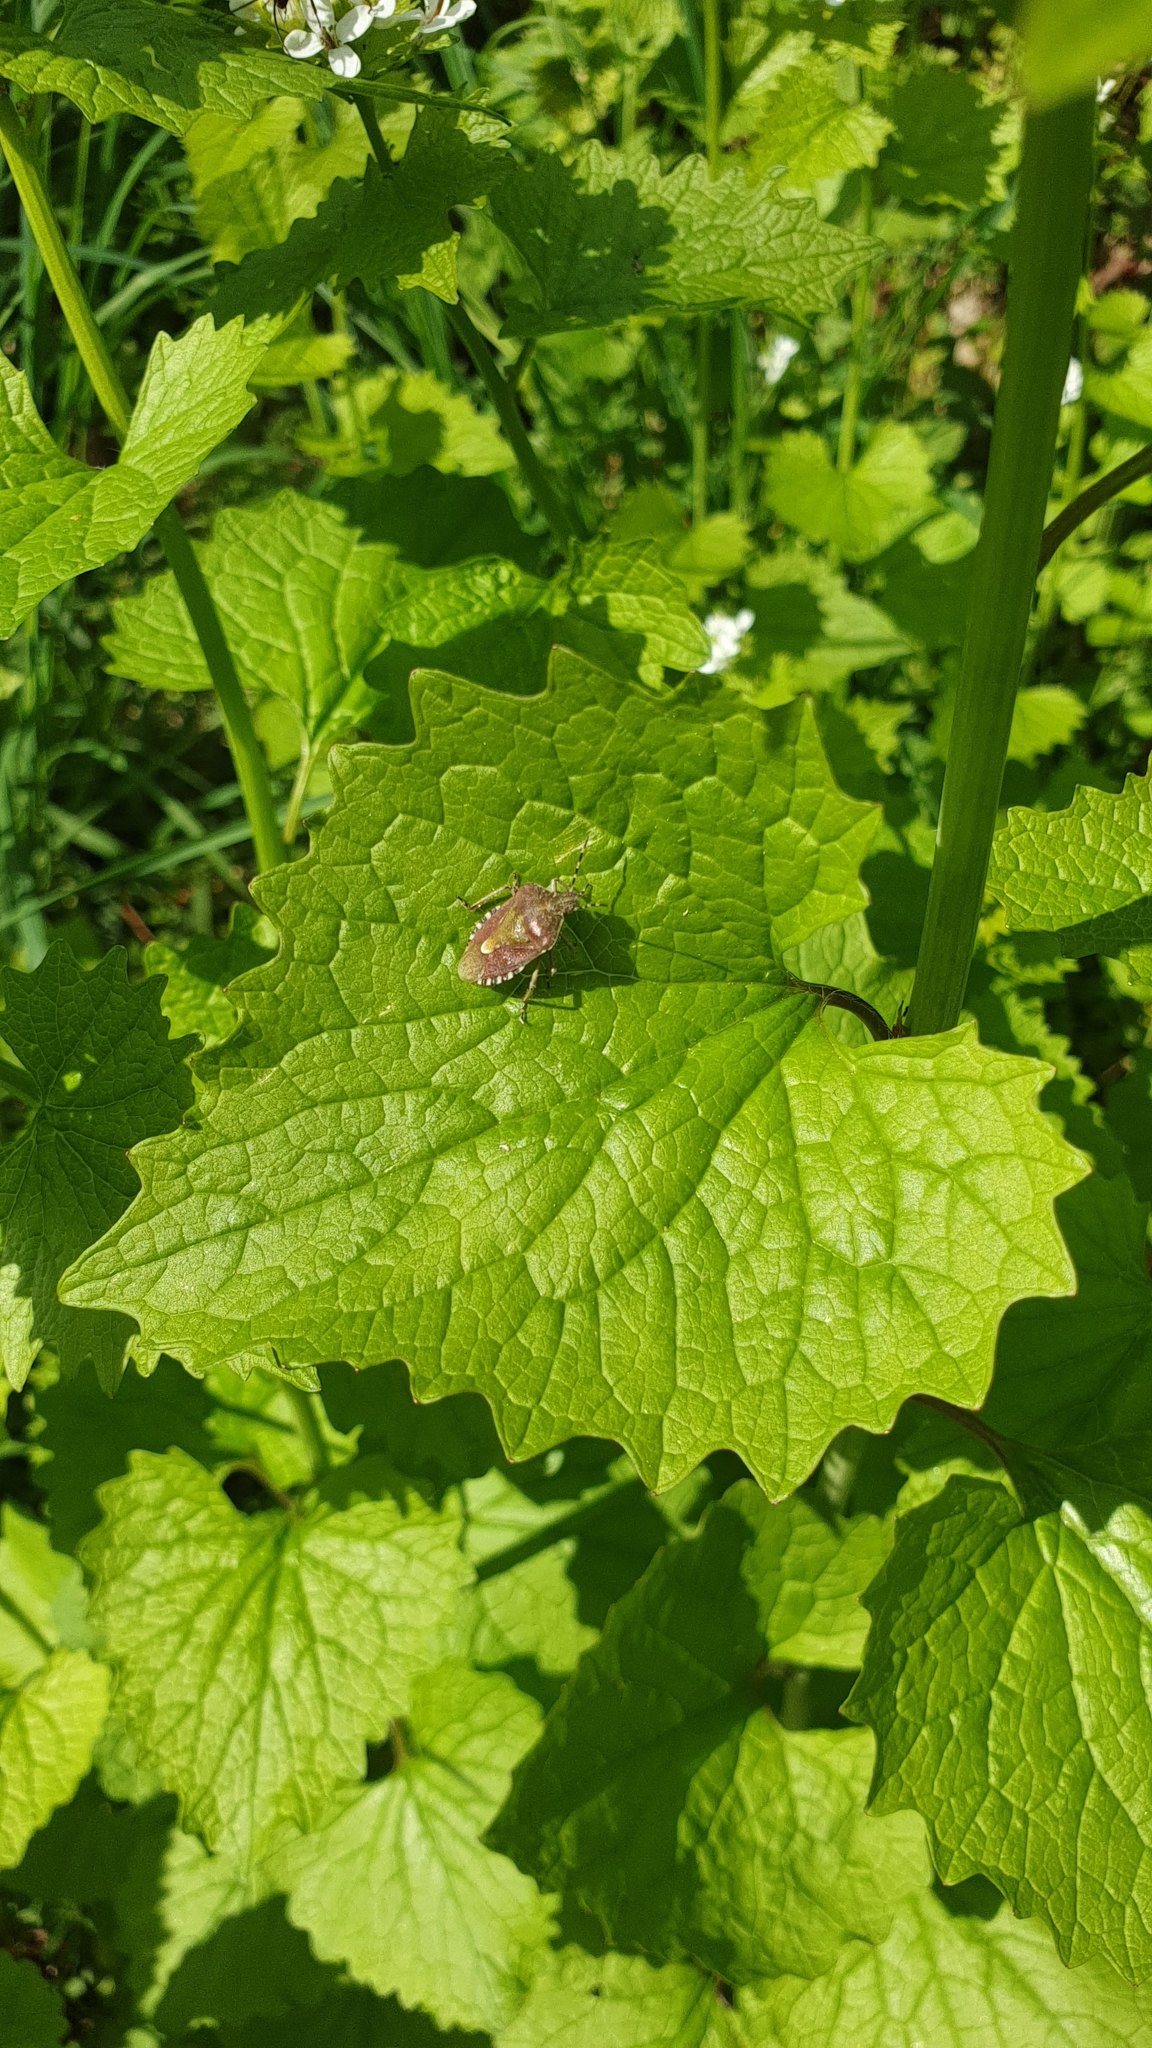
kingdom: Animalia
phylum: Arthropoda
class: Insecta
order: Hemiptera
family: Pentatomidae
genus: Dolycoris
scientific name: Dolycoris baccarum
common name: Sloe bug
